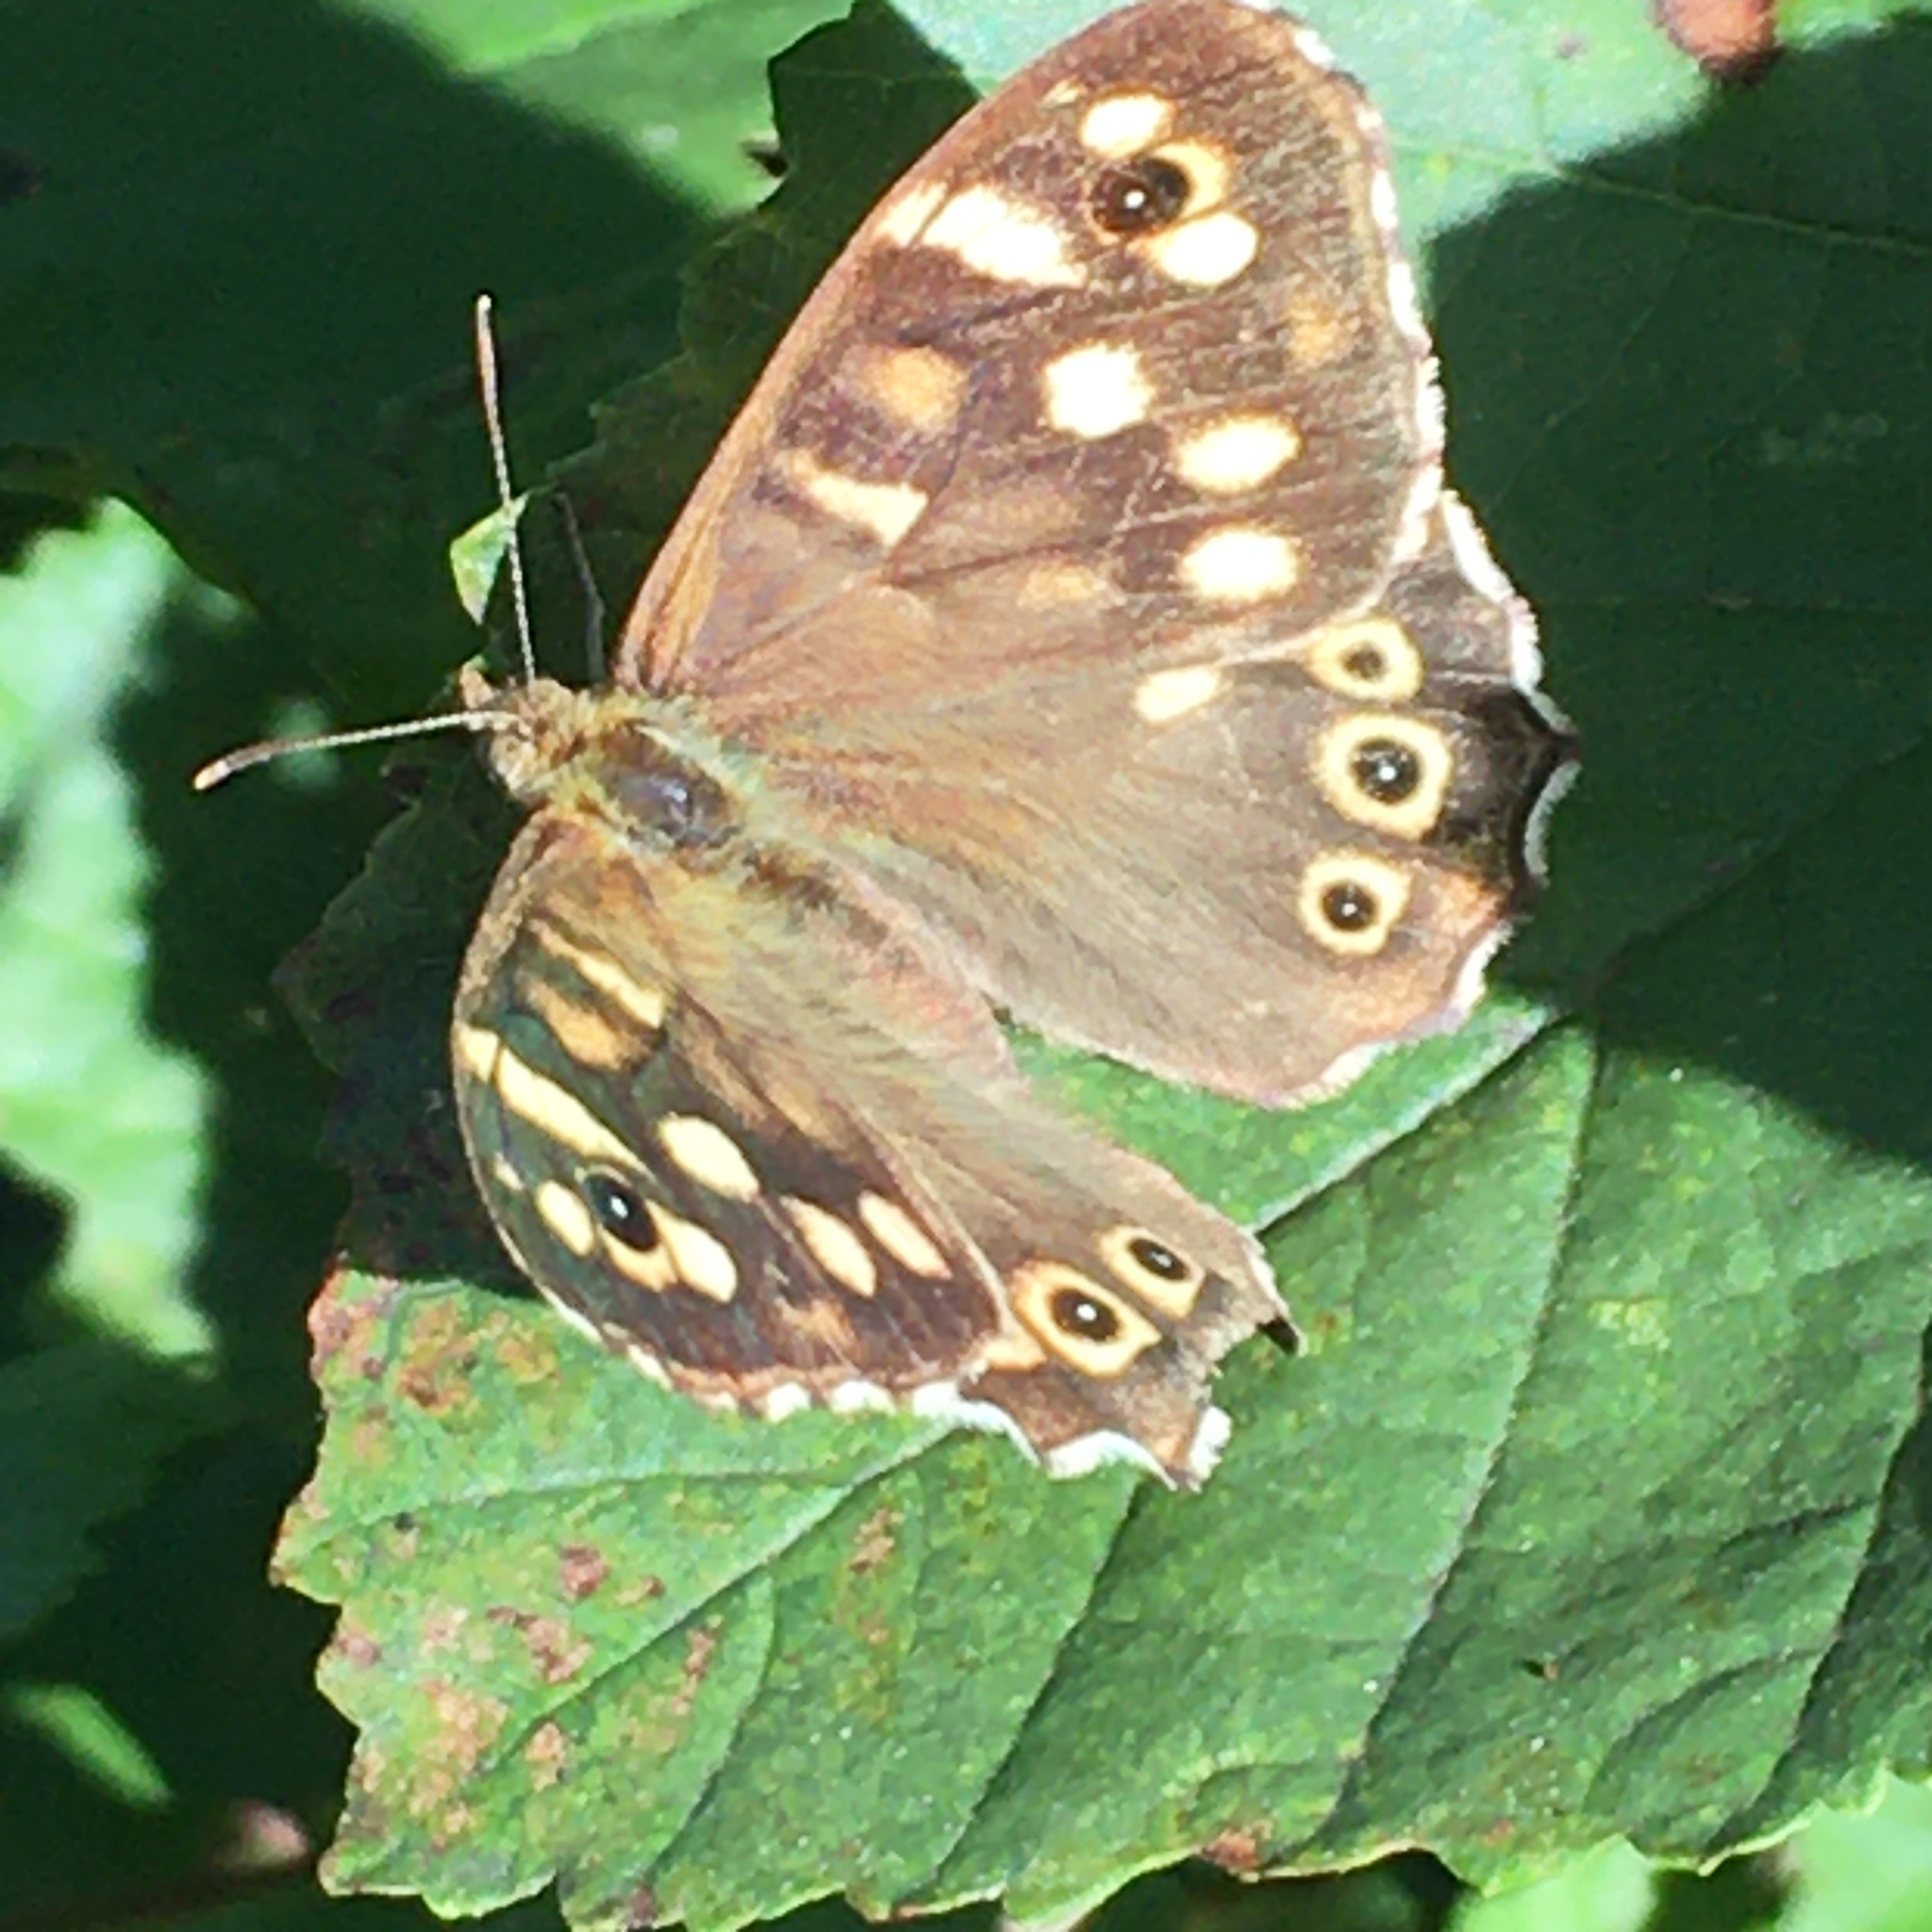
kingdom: Animalia
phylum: Arthropoda
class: Insecta
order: Lepidoptera
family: Nymphalidae
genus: Pararge
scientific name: Pararge aegeria
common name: Speckled wood
